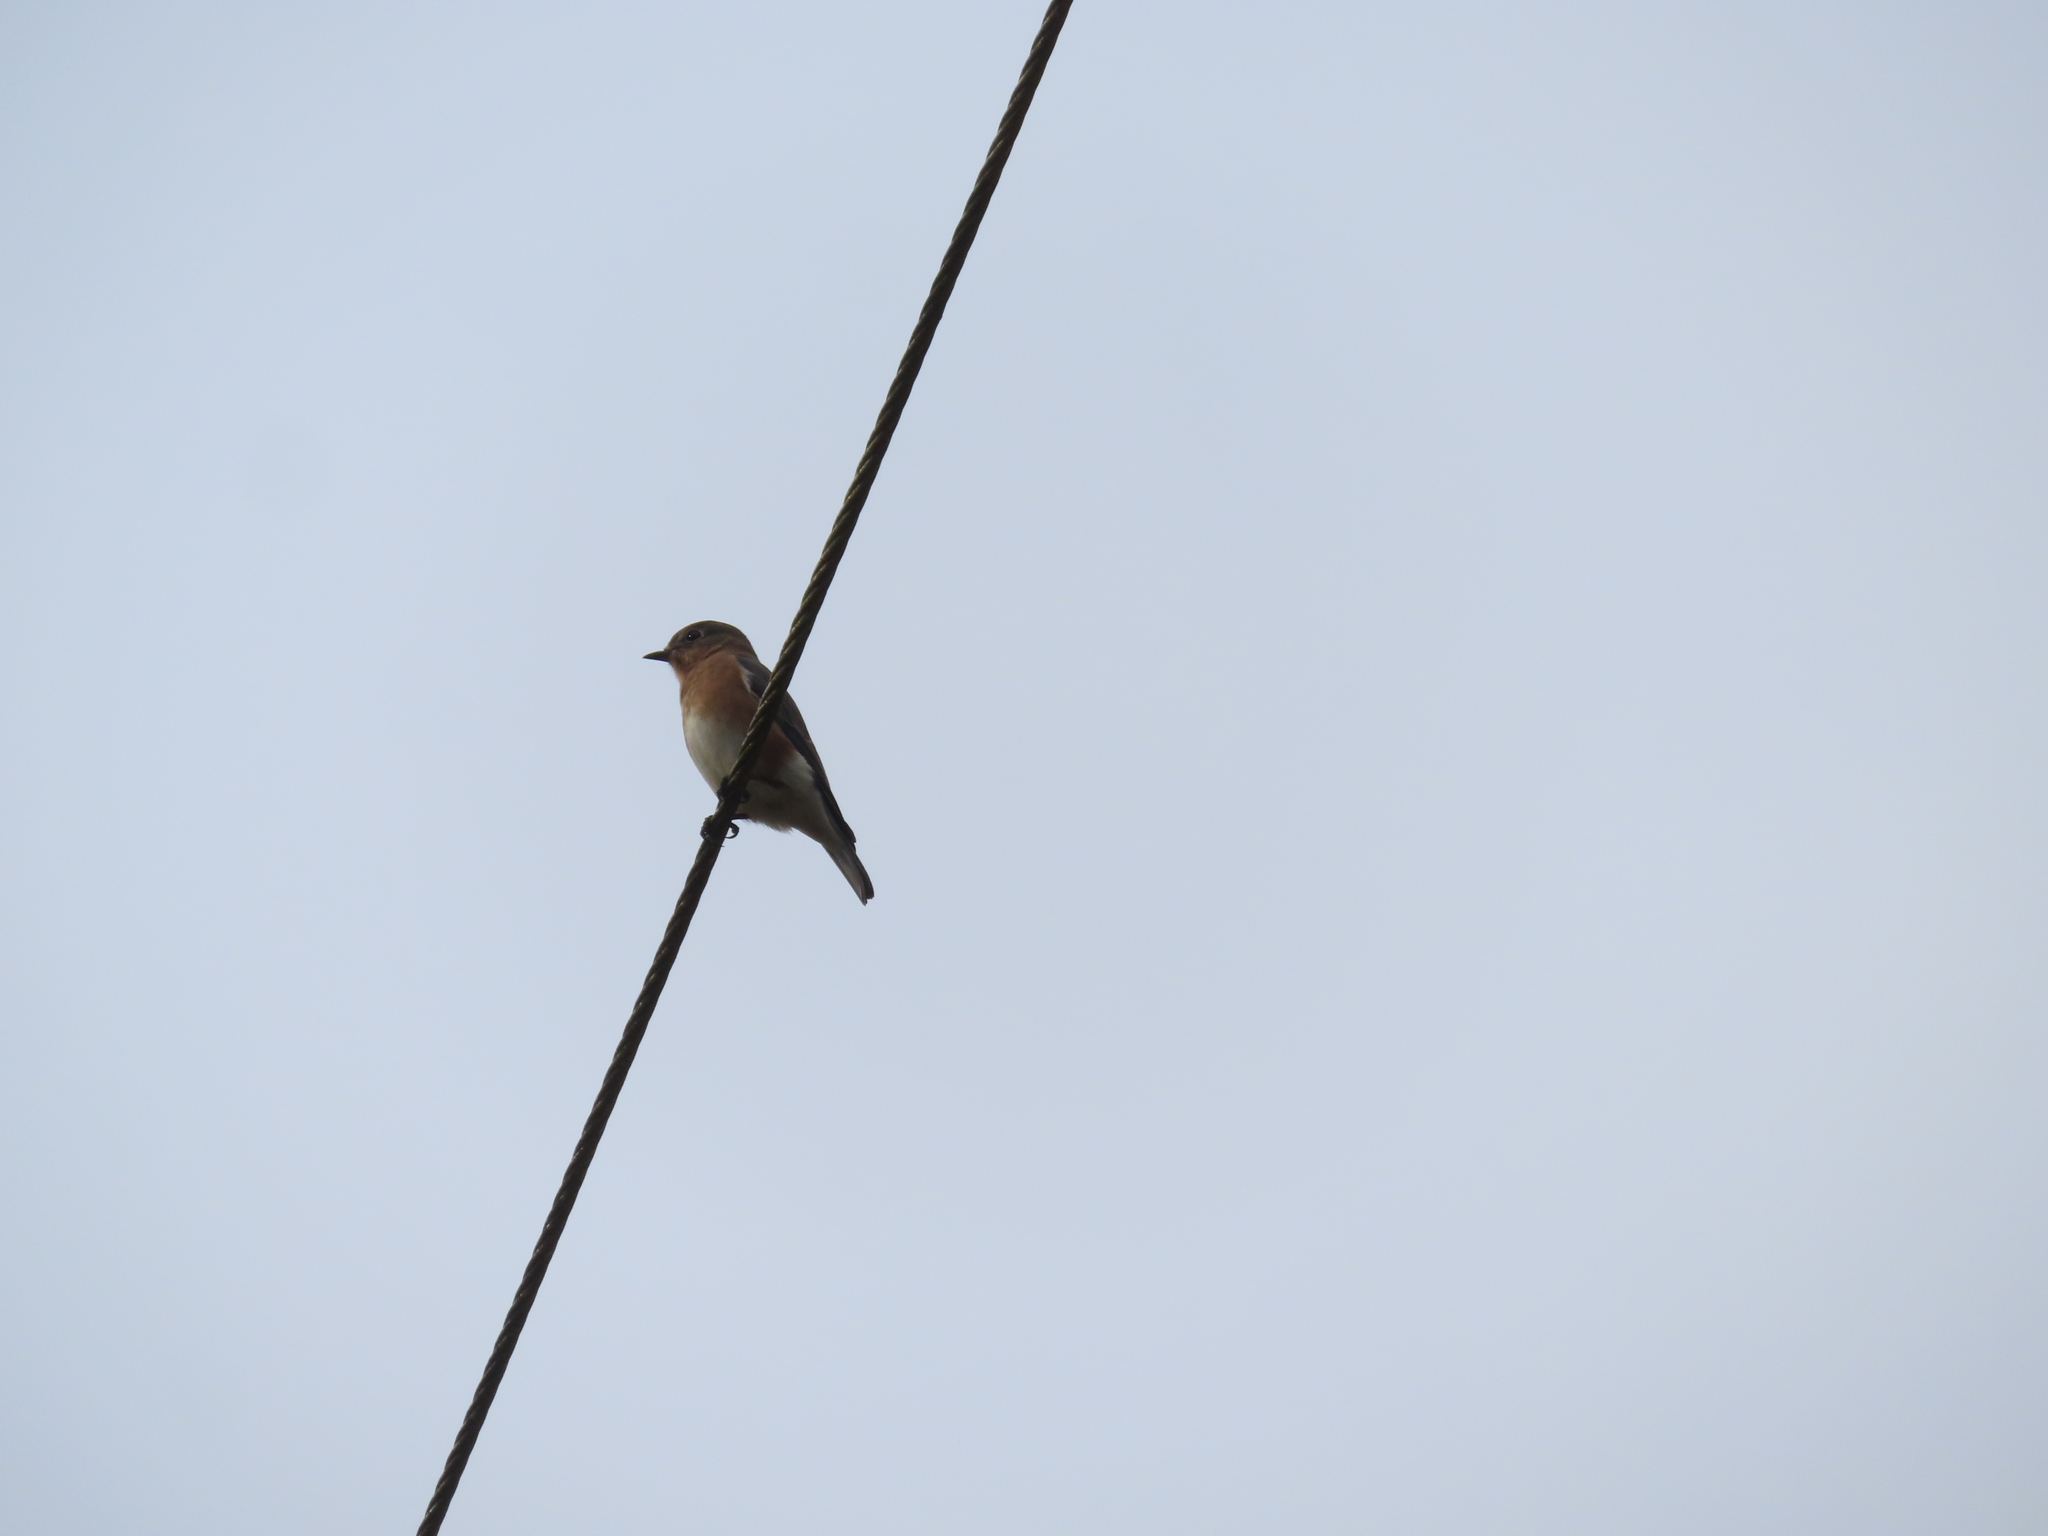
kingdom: Animalia
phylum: Chordata
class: Aves
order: Passeriformes
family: Turdidae
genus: Sialia
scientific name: Sialia sialis
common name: Eastern bluebird
